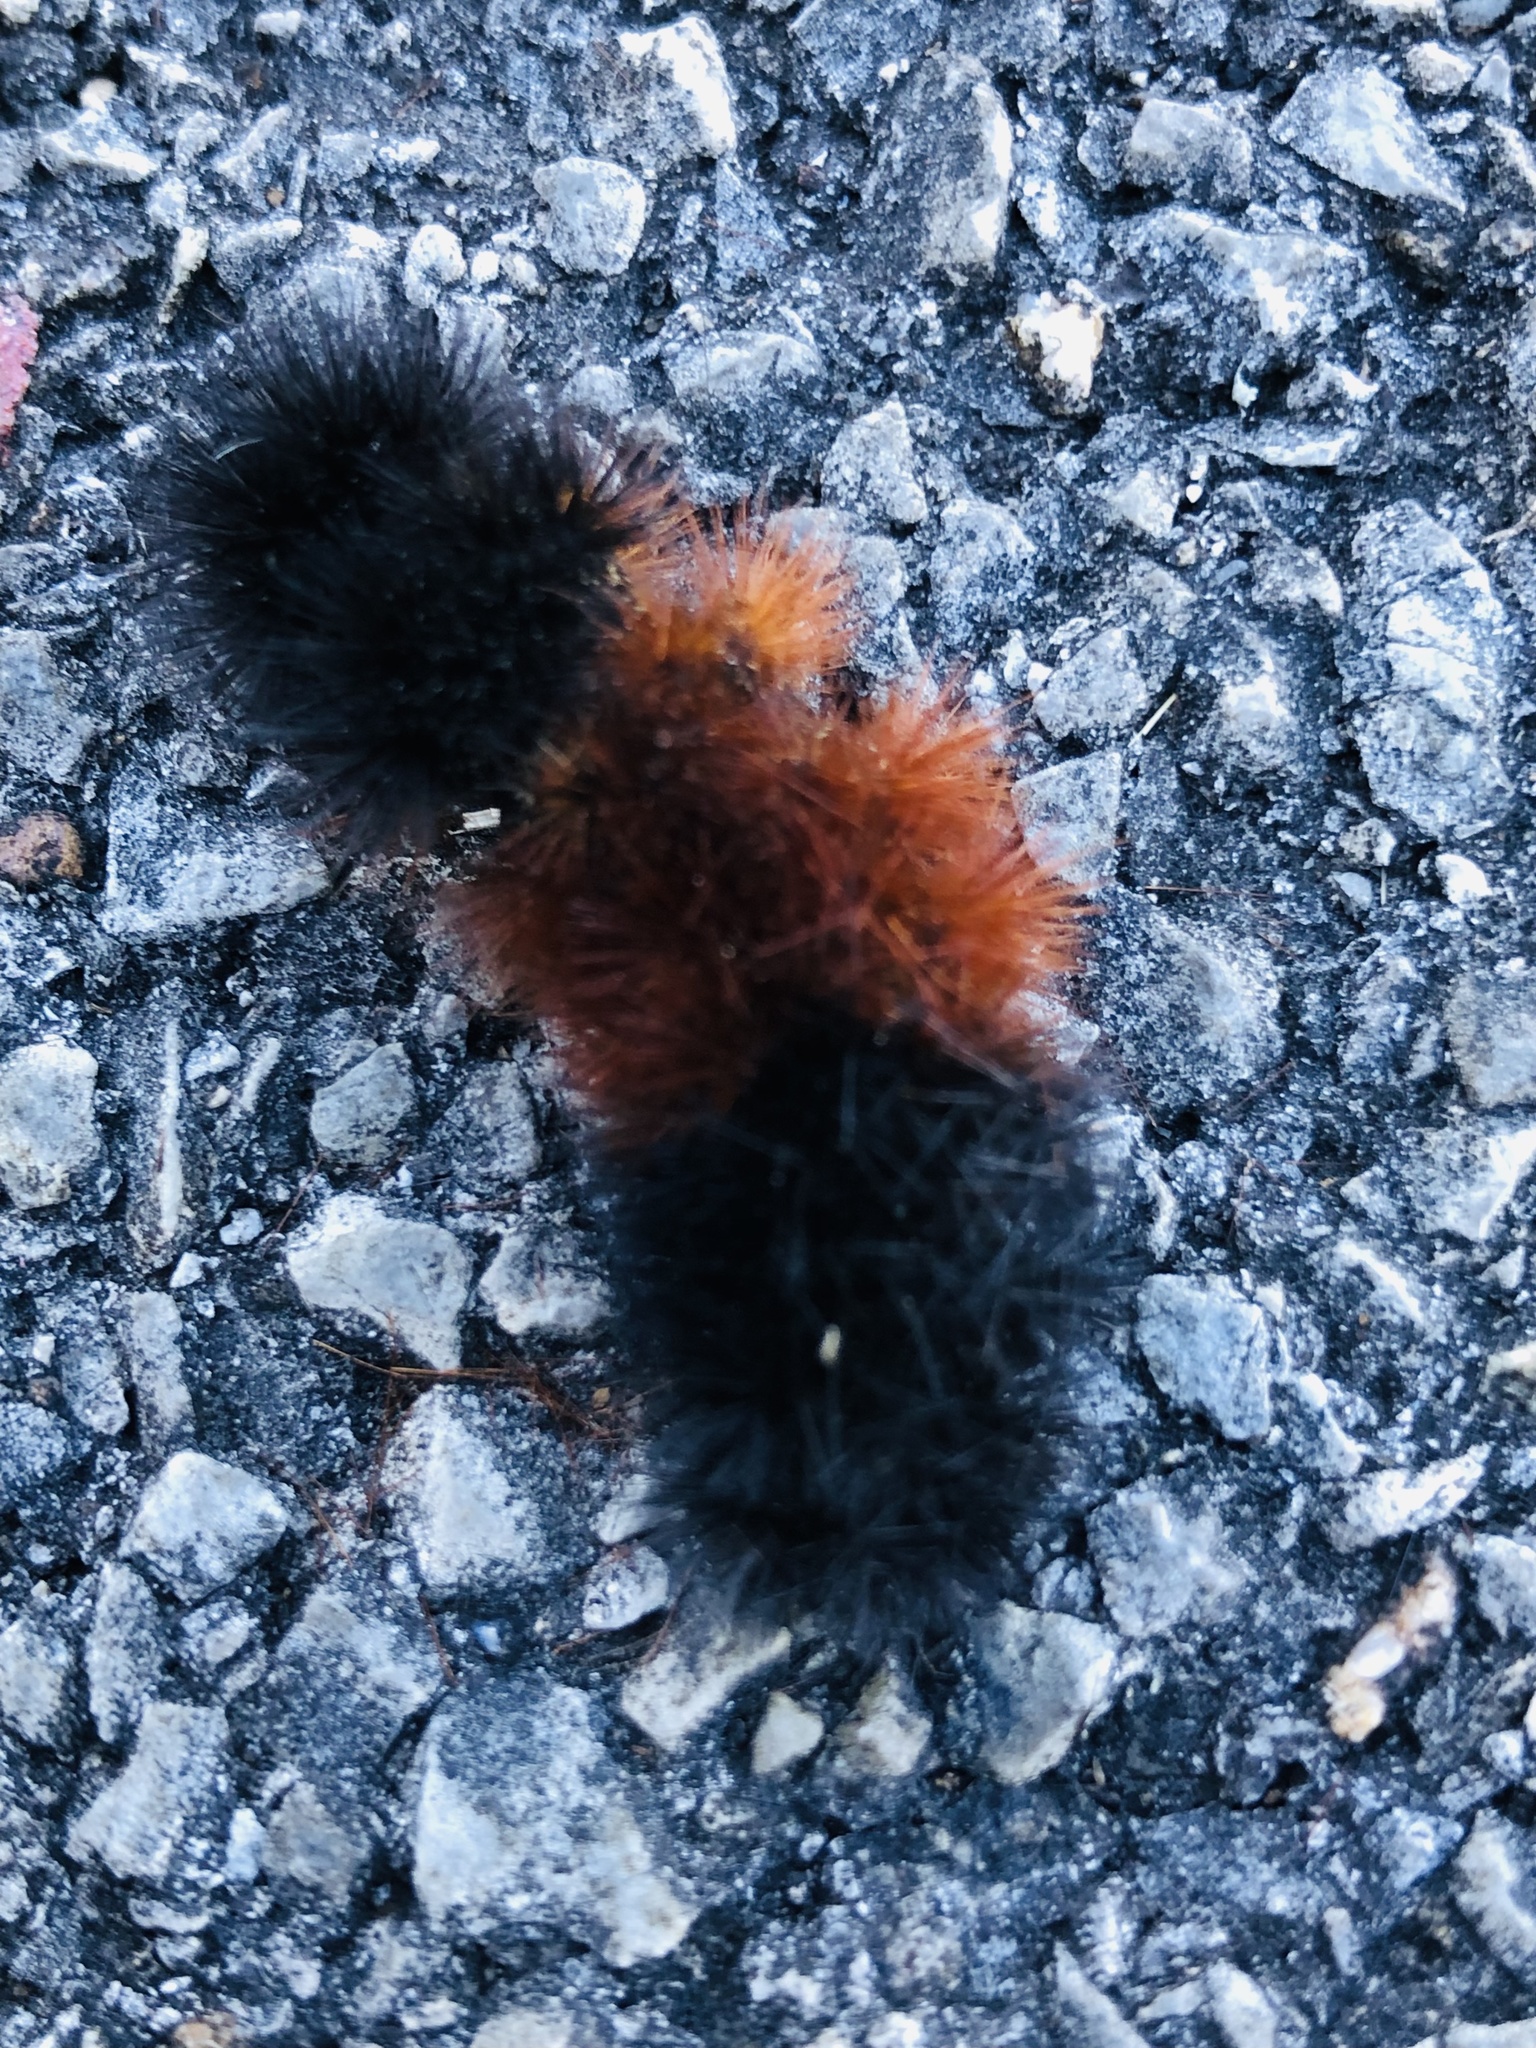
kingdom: Animalia
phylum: Arthropoda
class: Insecta
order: Lepidoptera
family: Erebidae
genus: Pyrrharctia
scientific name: Pyrrharctia isabella
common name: Isabella tiger moth
